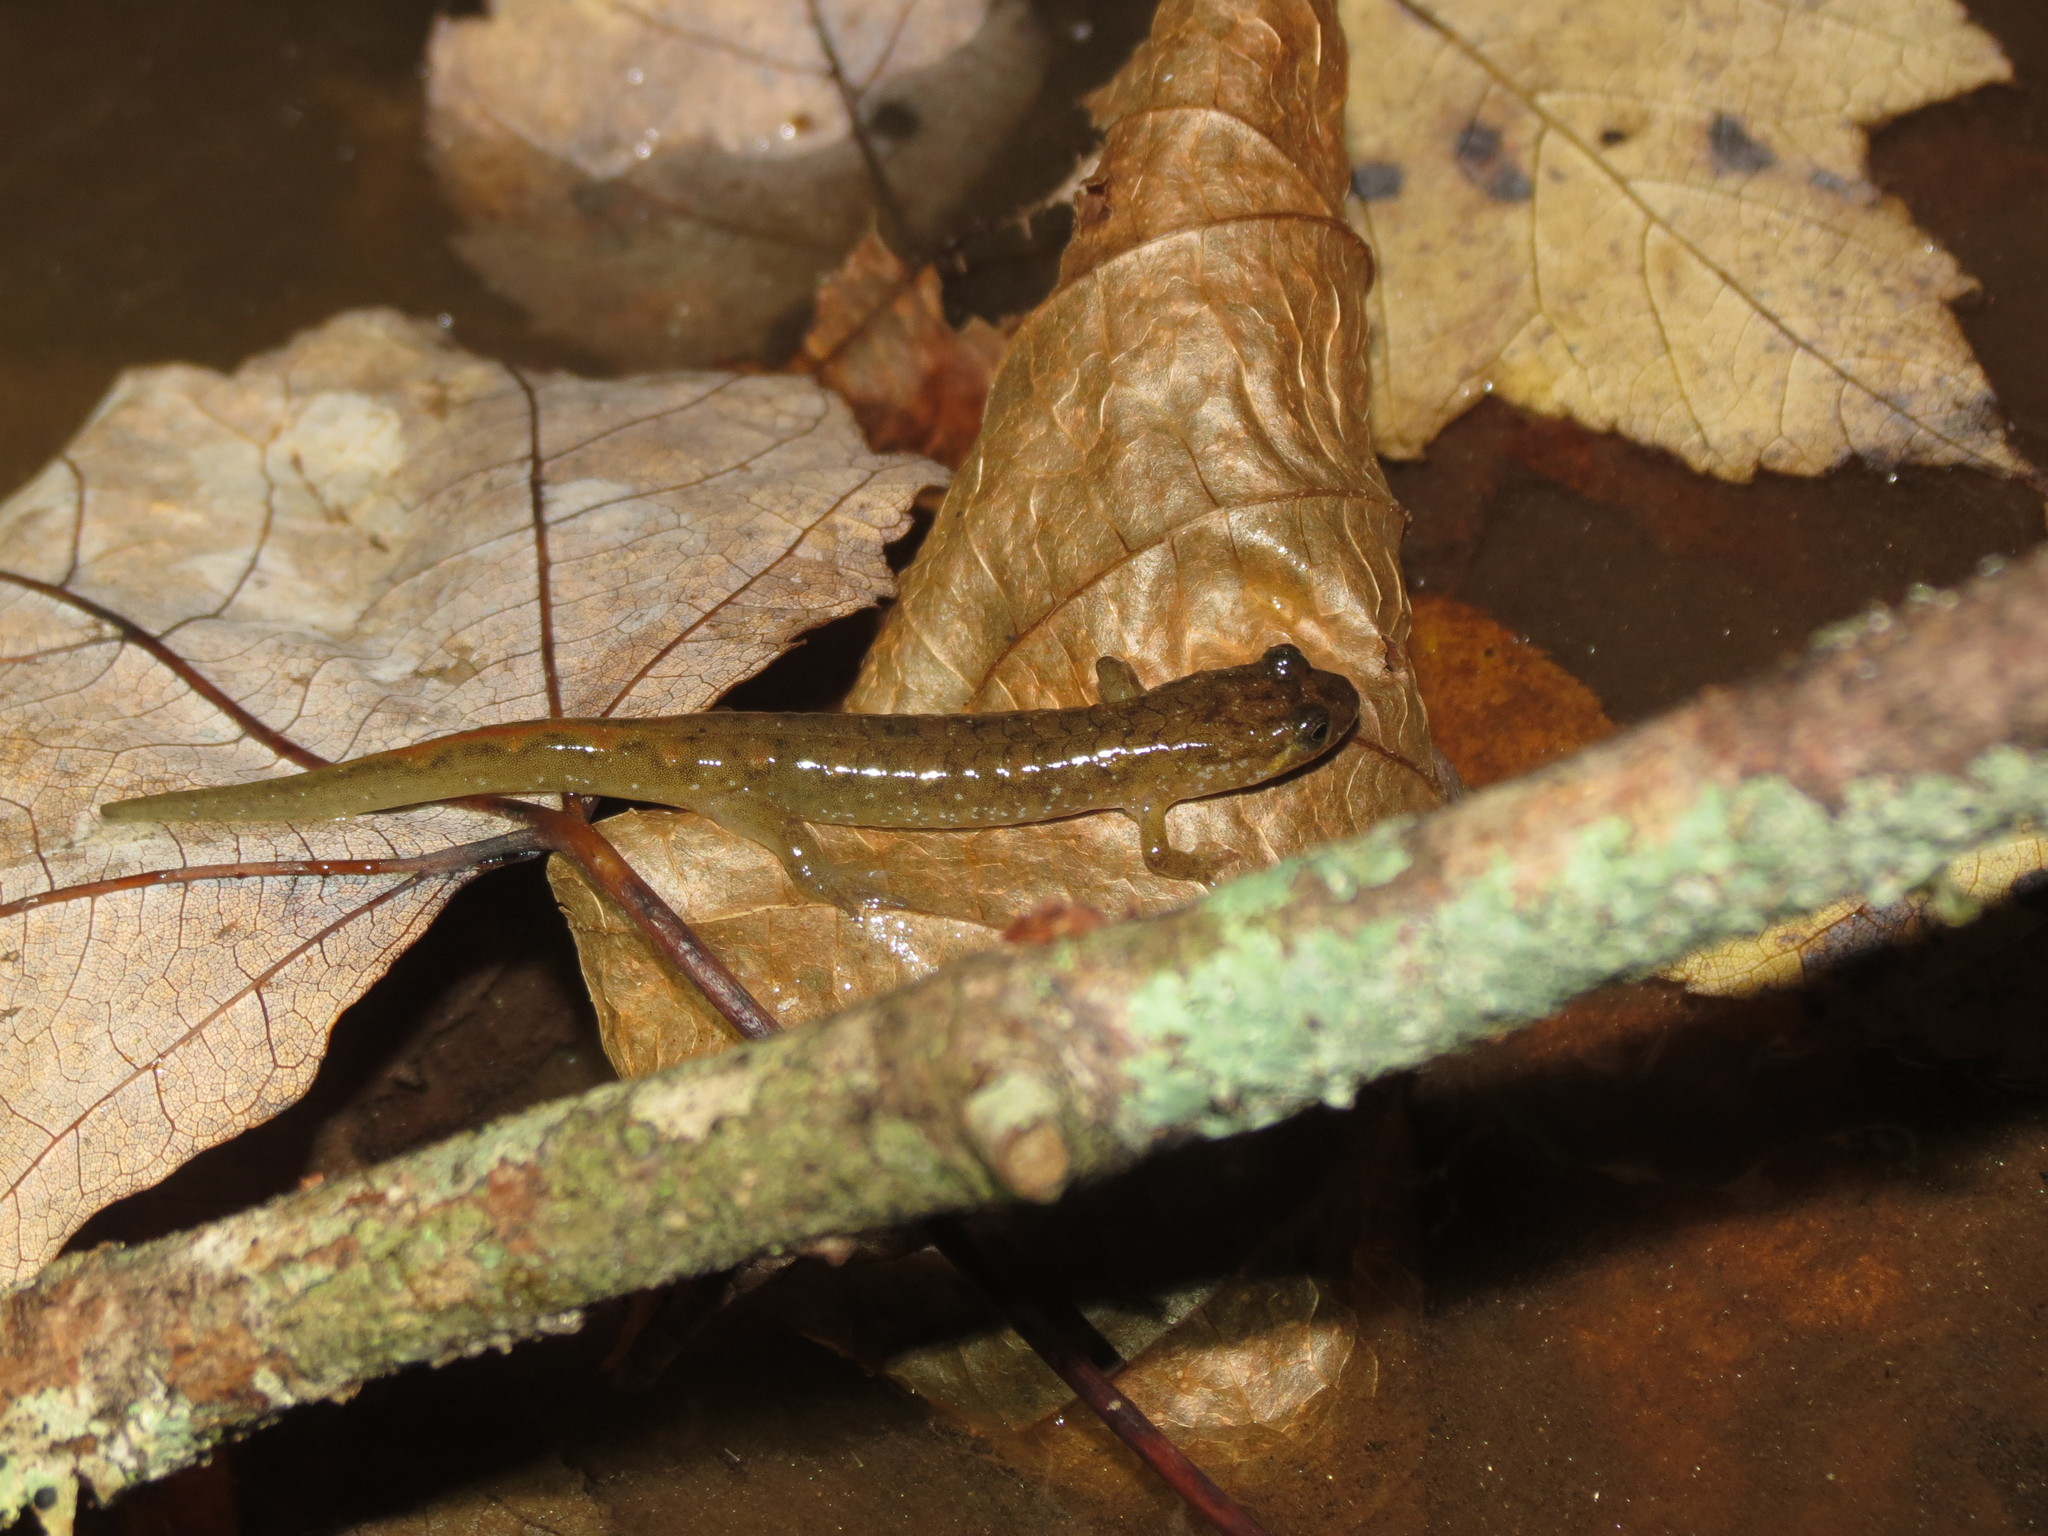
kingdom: Animalia
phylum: Chordata
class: Amphibia
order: Caudata
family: Plethodontidae
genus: Desmognathus
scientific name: Desmognathus monticola
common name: Seal salamander
